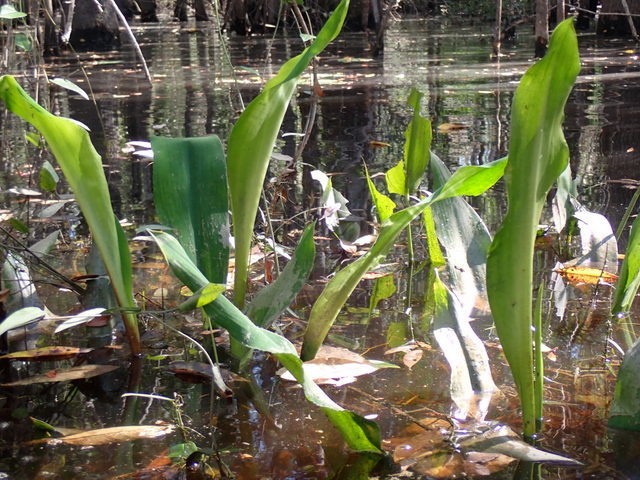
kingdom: Plantae
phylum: Tracheophyta
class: Liliopsida
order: Alismatales
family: Araceae
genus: Orontium
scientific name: Orontium aquaticum
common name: Golden-club
